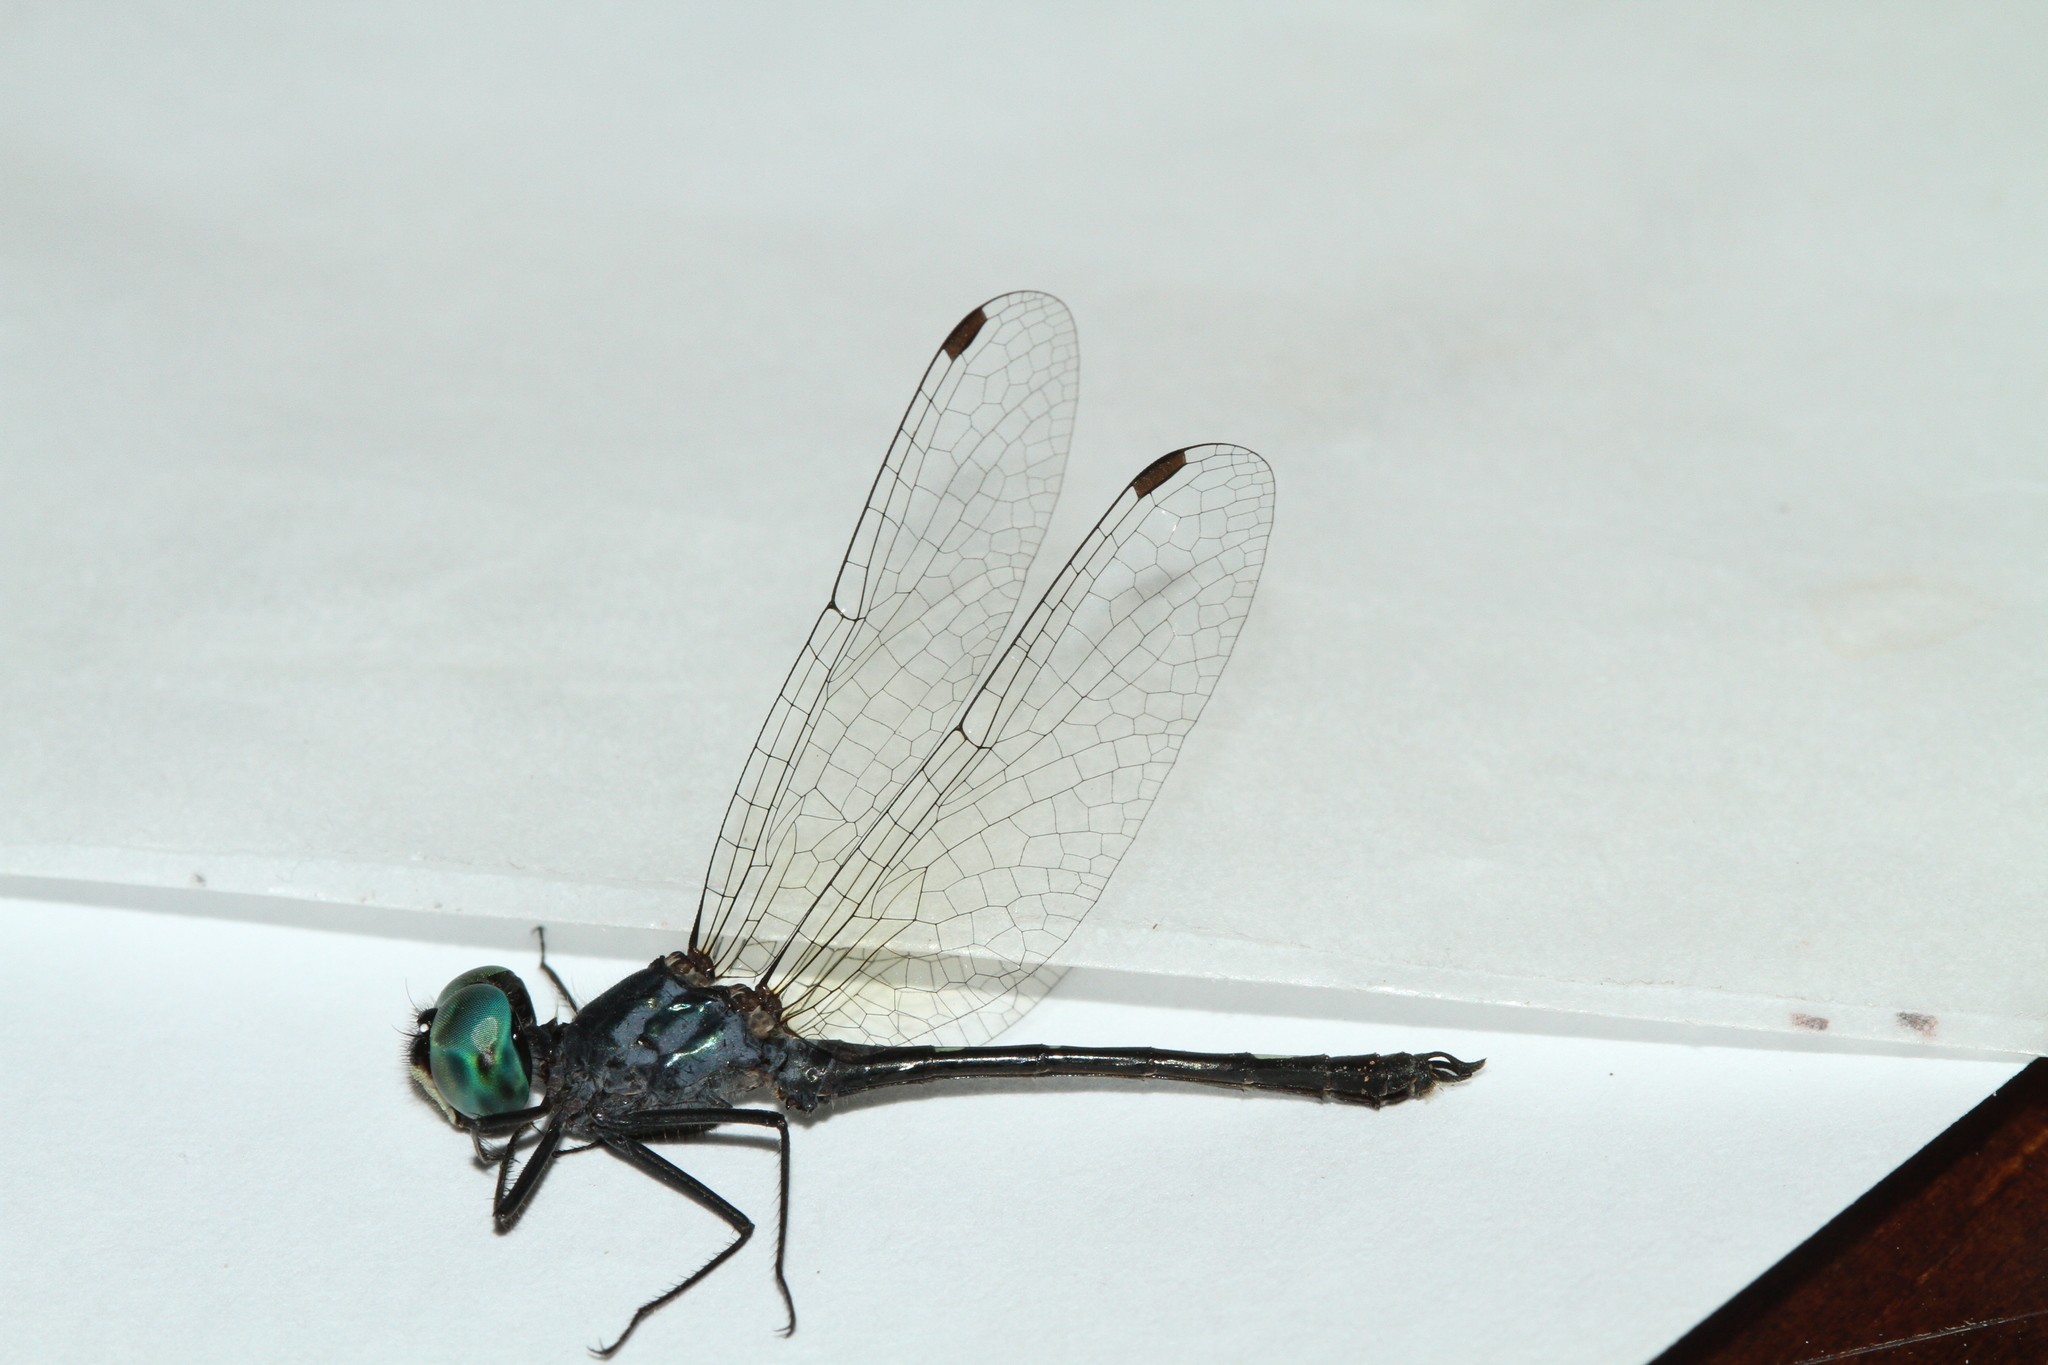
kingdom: Animalia
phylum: Arthropoda
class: Insecta
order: Odonata
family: Libellulidae
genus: Nephepeltia
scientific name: Nephepeltia phryne
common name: Spine-bellied dryad
